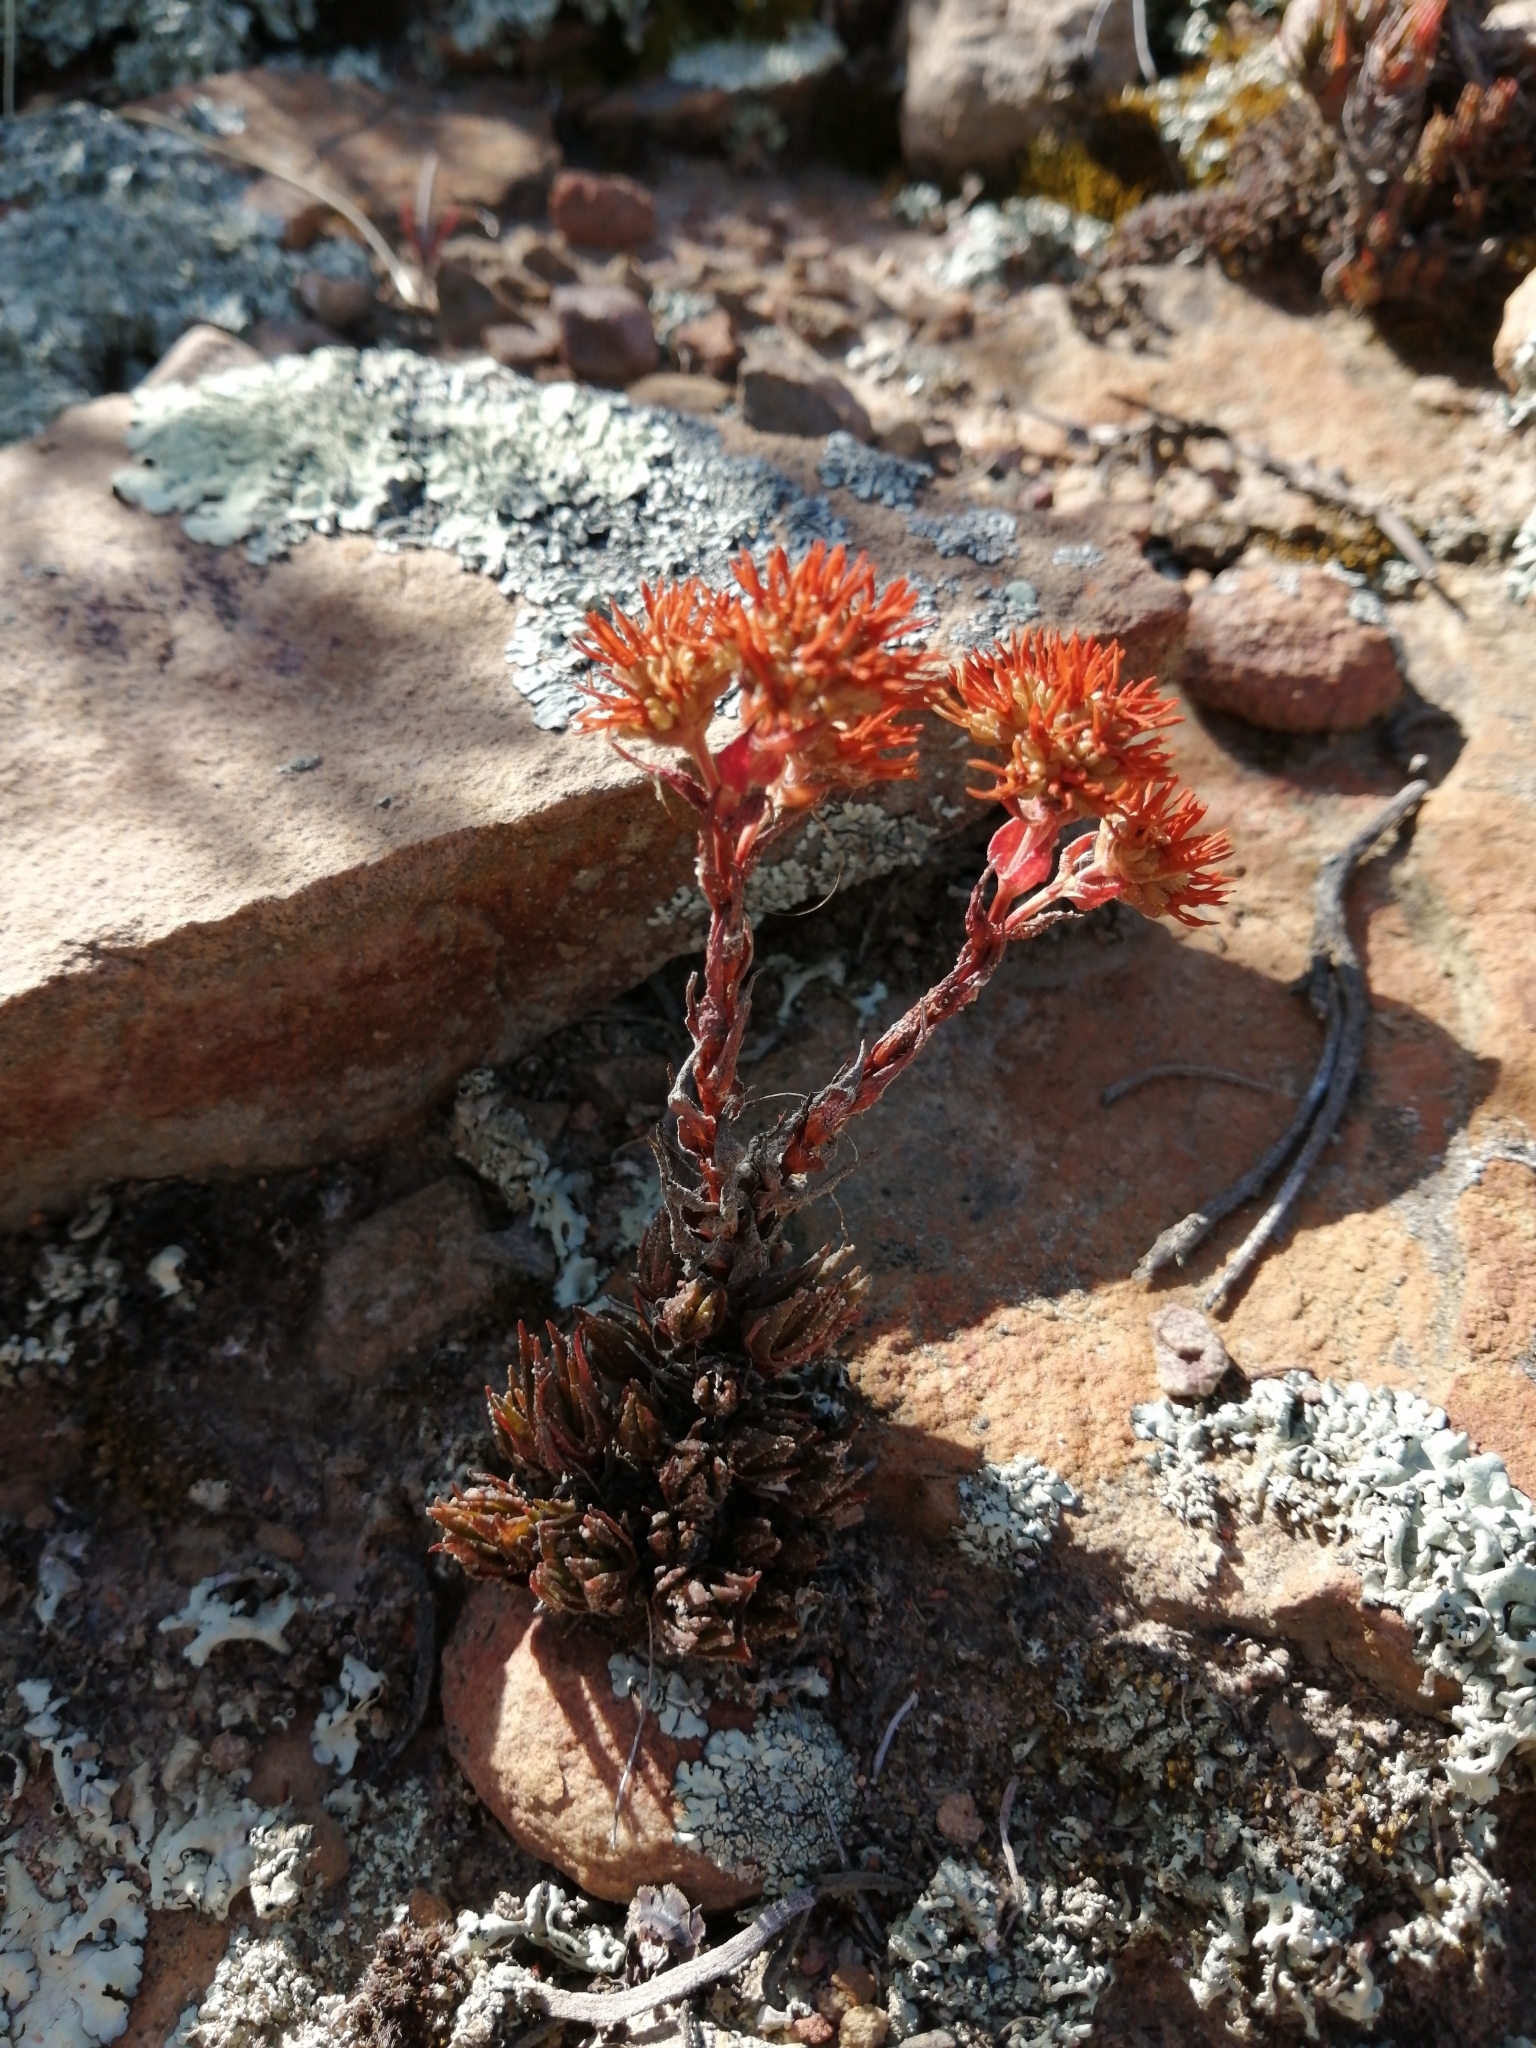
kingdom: Plantae
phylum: Tracheophyta
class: Magnoliopsida
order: Saxifragales
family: Crassulaceae
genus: Crassula
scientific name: Crassula alpestris
